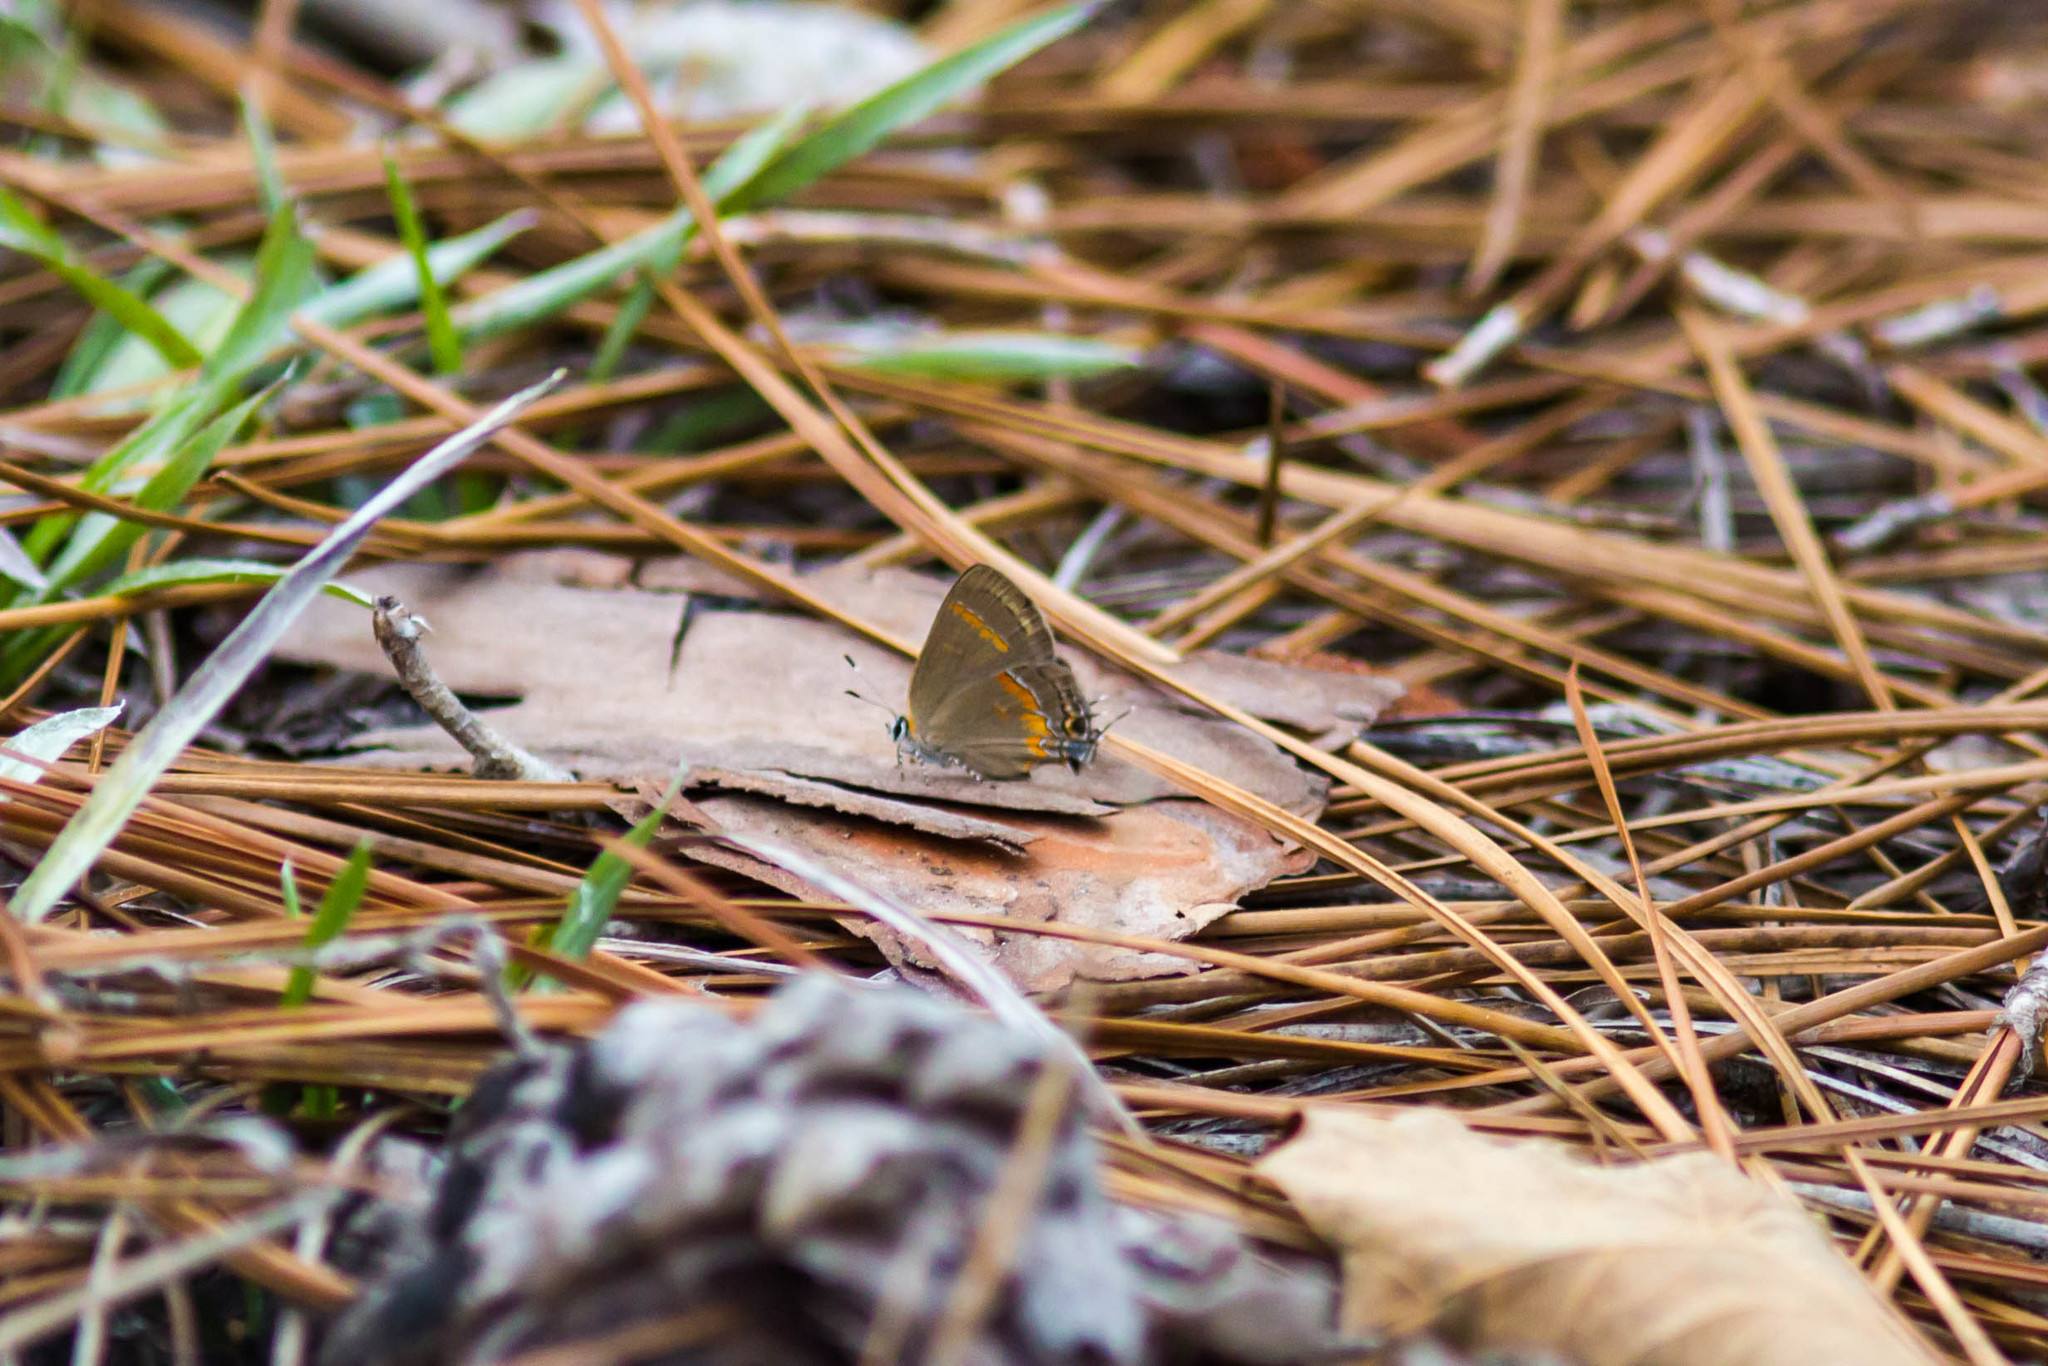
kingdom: Animalia
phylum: Arthropoda
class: Insecta
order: Lepidoptera
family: Lycaenidae
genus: Calycopis
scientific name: Calycopis cecrops
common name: Red-banded hairstreak
